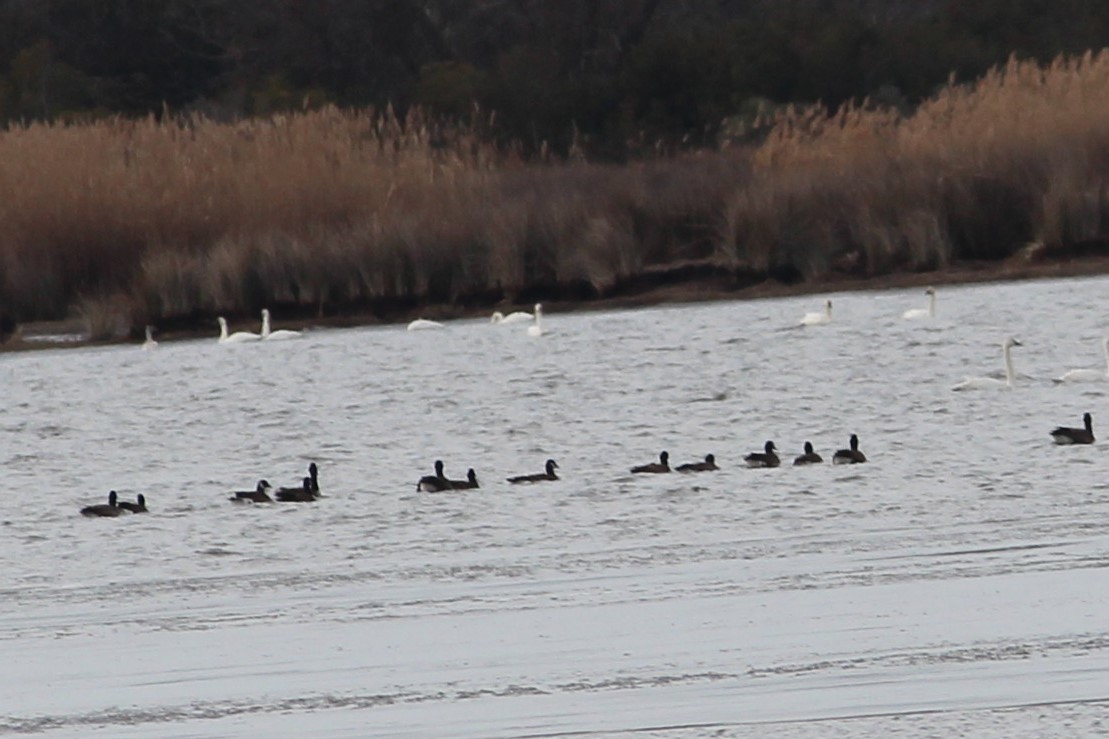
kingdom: Animalia
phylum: Chordata
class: Aves
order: Anseriformes
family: Anatidae
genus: Branta
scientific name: Branta canadensis
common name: Canada goose
